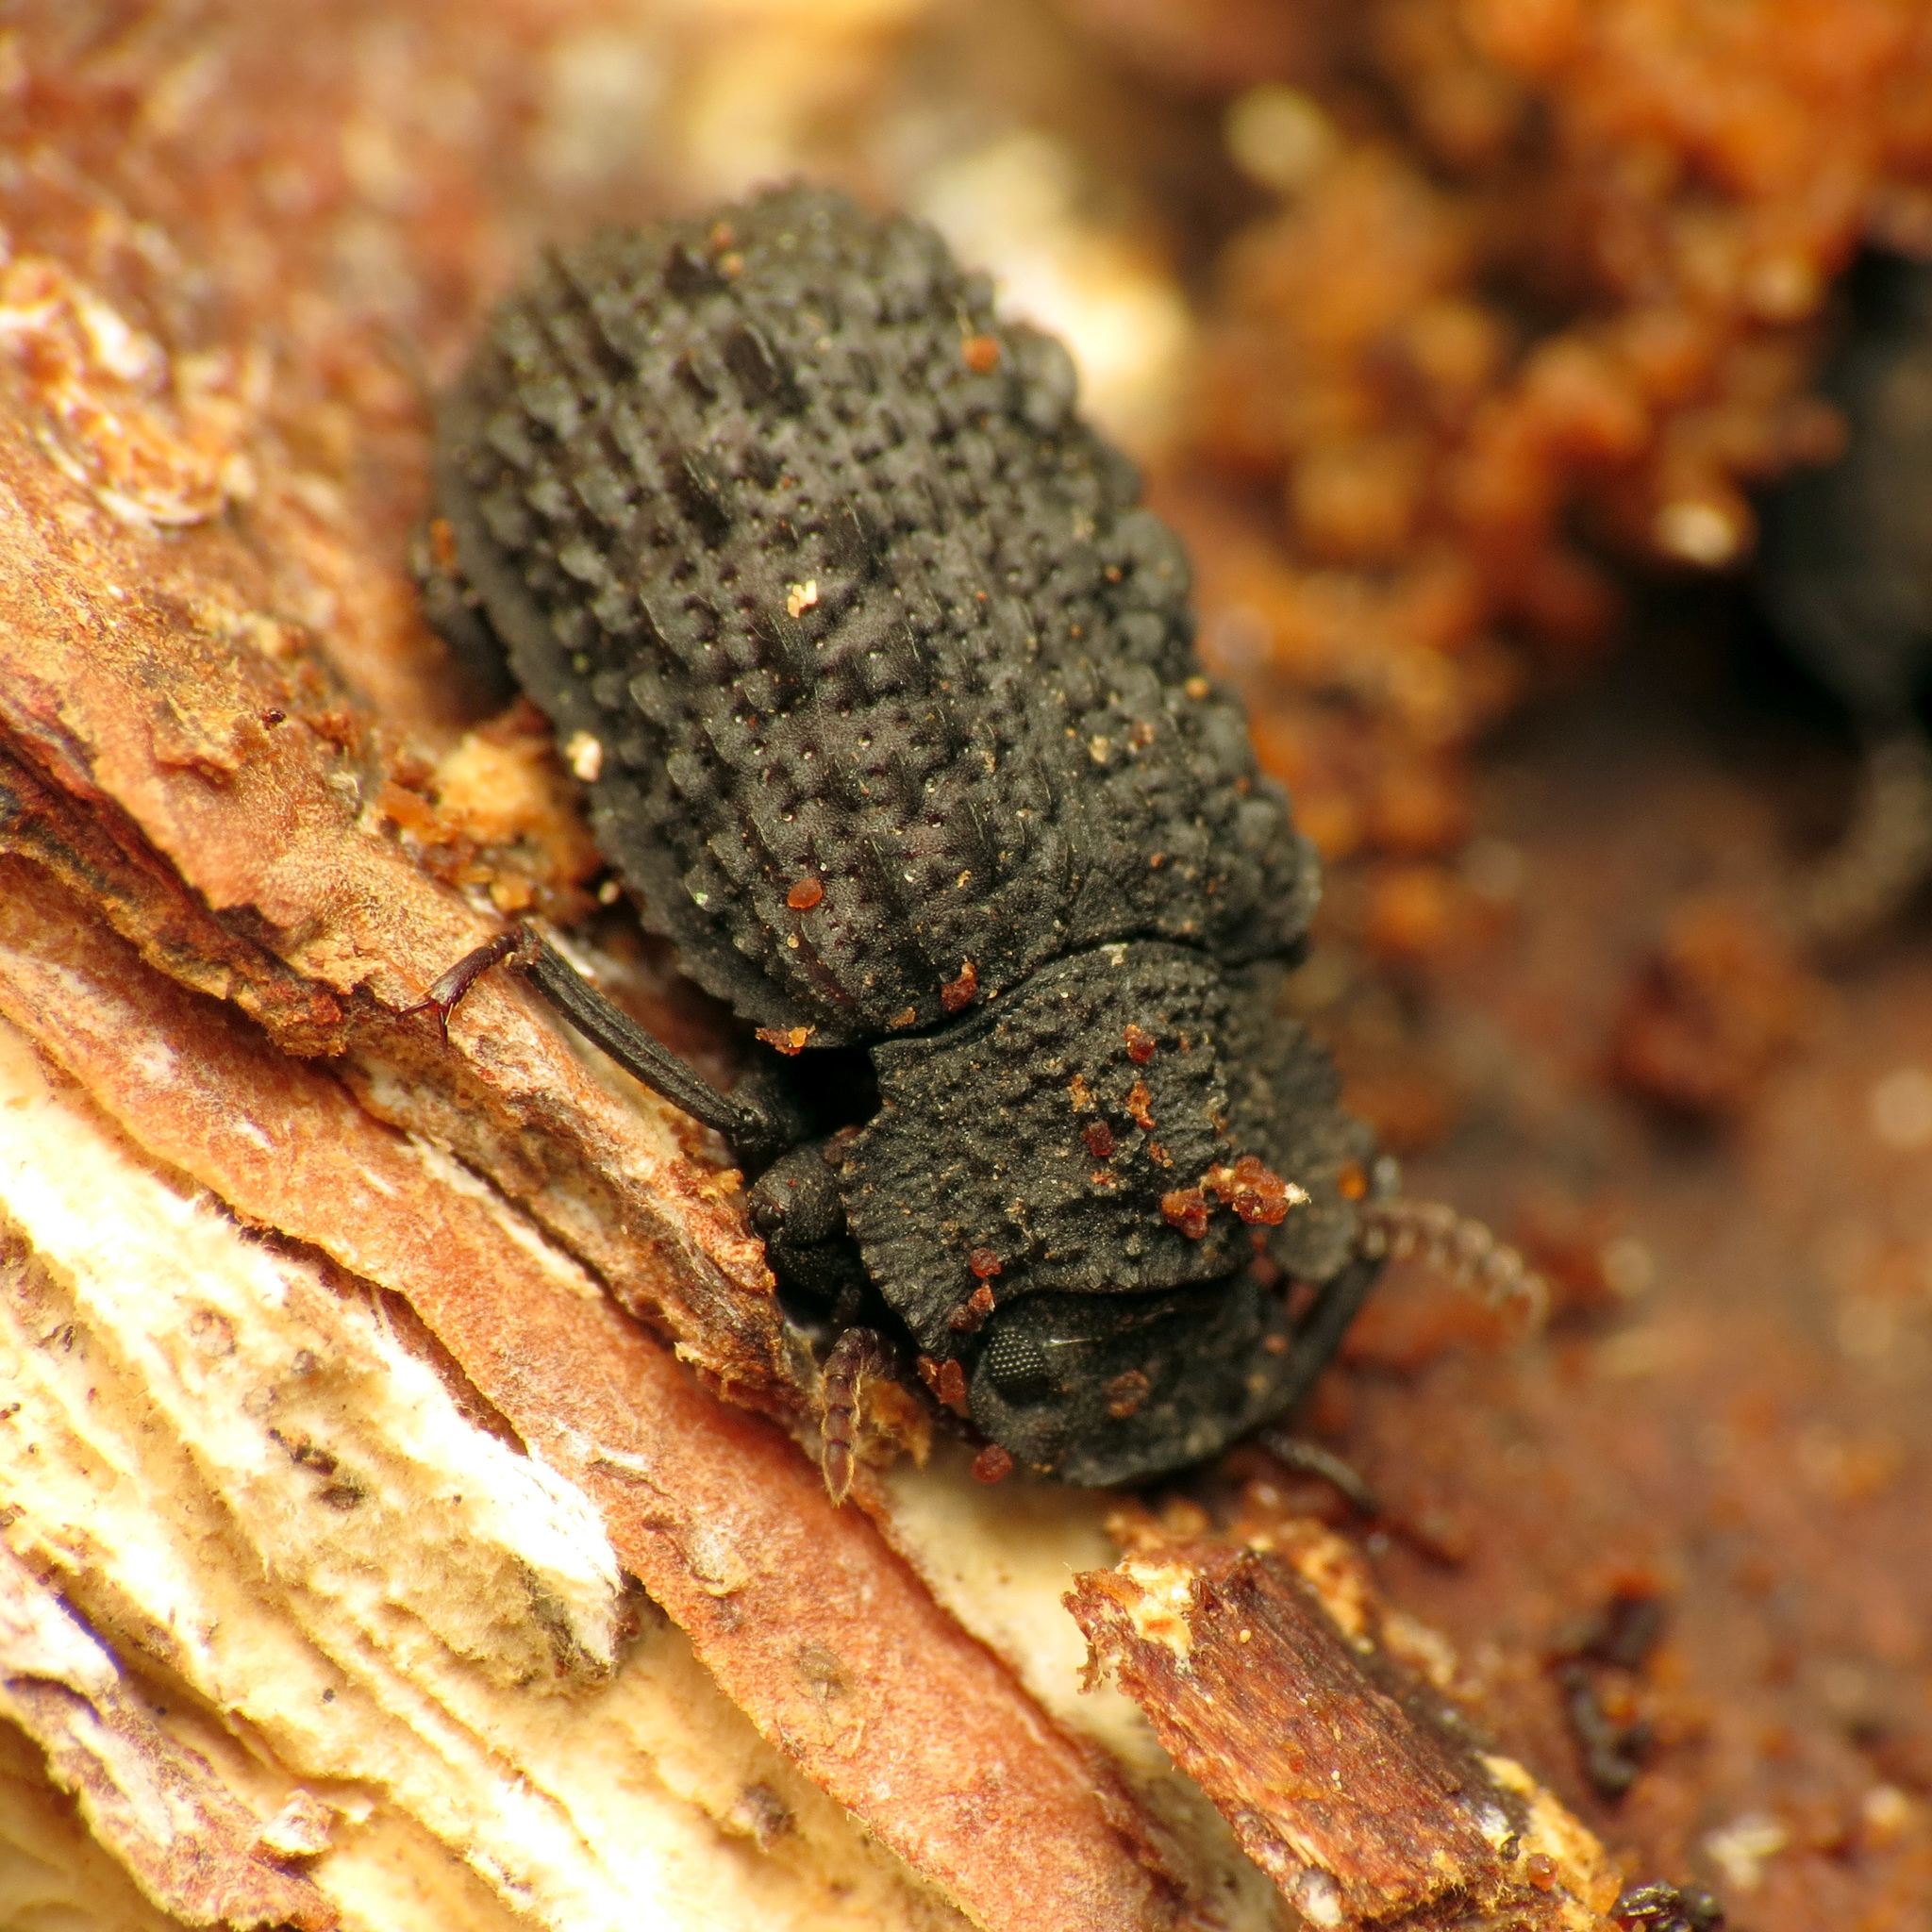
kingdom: Animalia
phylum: Arthropoda
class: Insecta
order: Coleoptera
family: Tenebrionidae
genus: Bolitophagus
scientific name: Bolitophagus corticola
